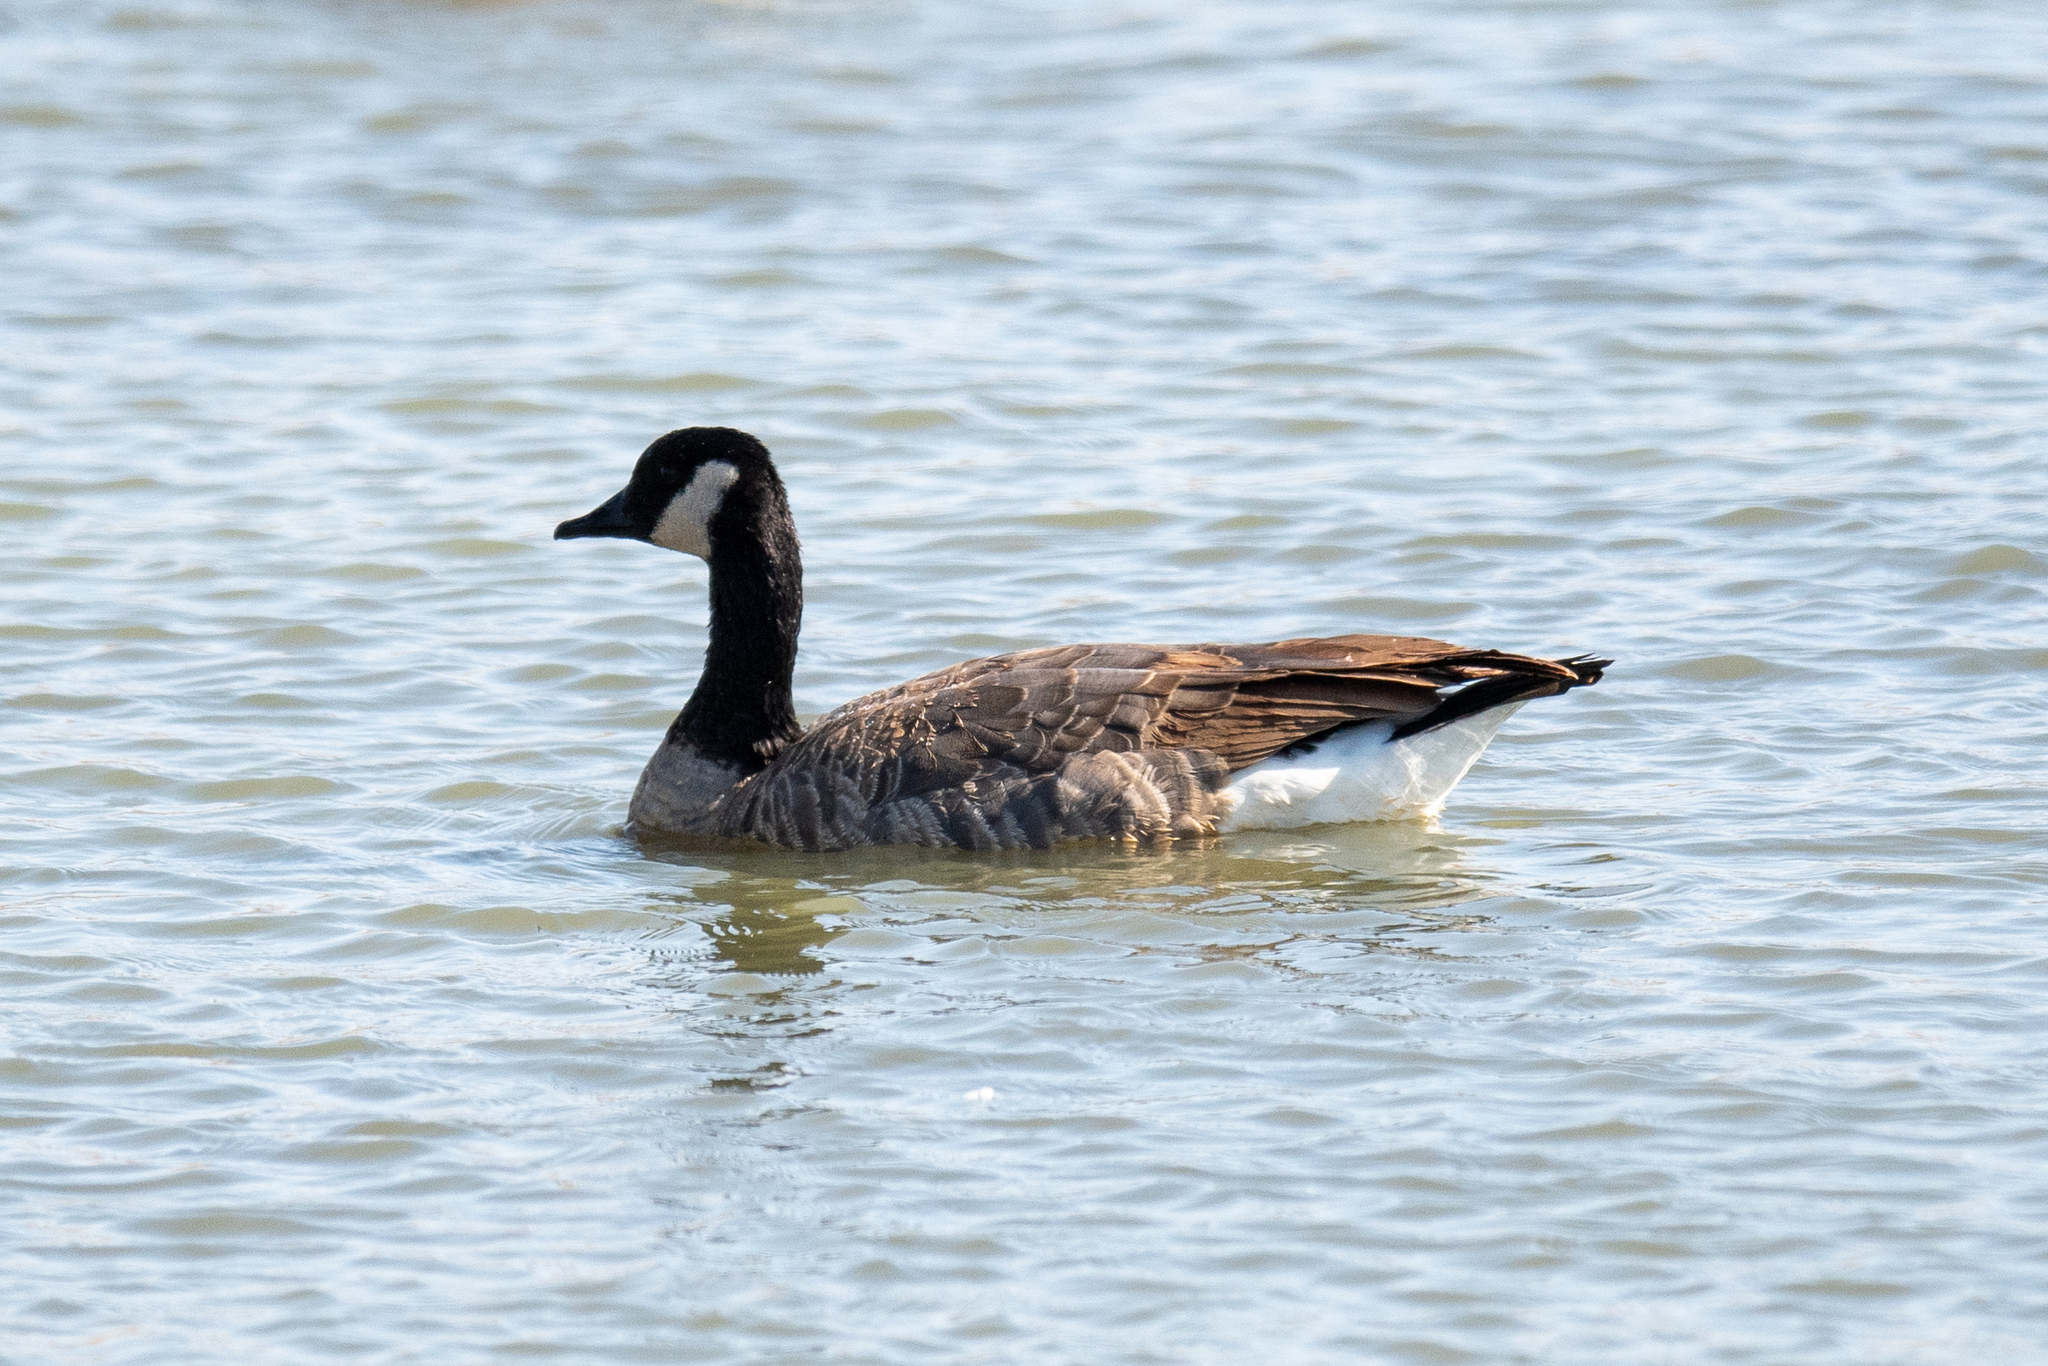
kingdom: Animalia
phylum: Chordata
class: Aves
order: Anseriformes
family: Anatidae
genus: Branta
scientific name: Branta canadensis
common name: Canada goose
